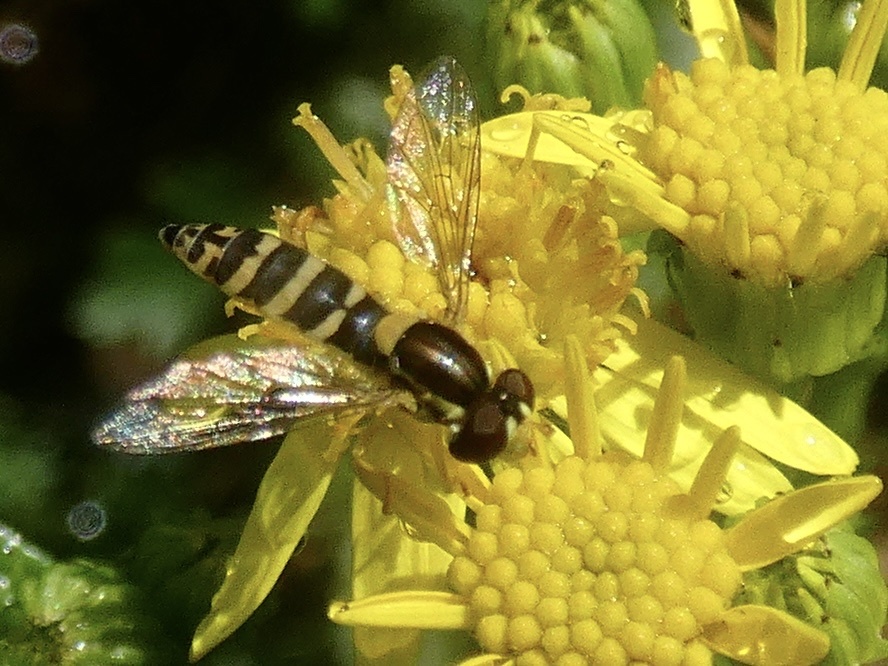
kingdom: Animalia
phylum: Arthropoda
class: Insecta
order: Diptera
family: Syrphidae
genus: Sphaerophoria
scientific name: Sphaerophoria
